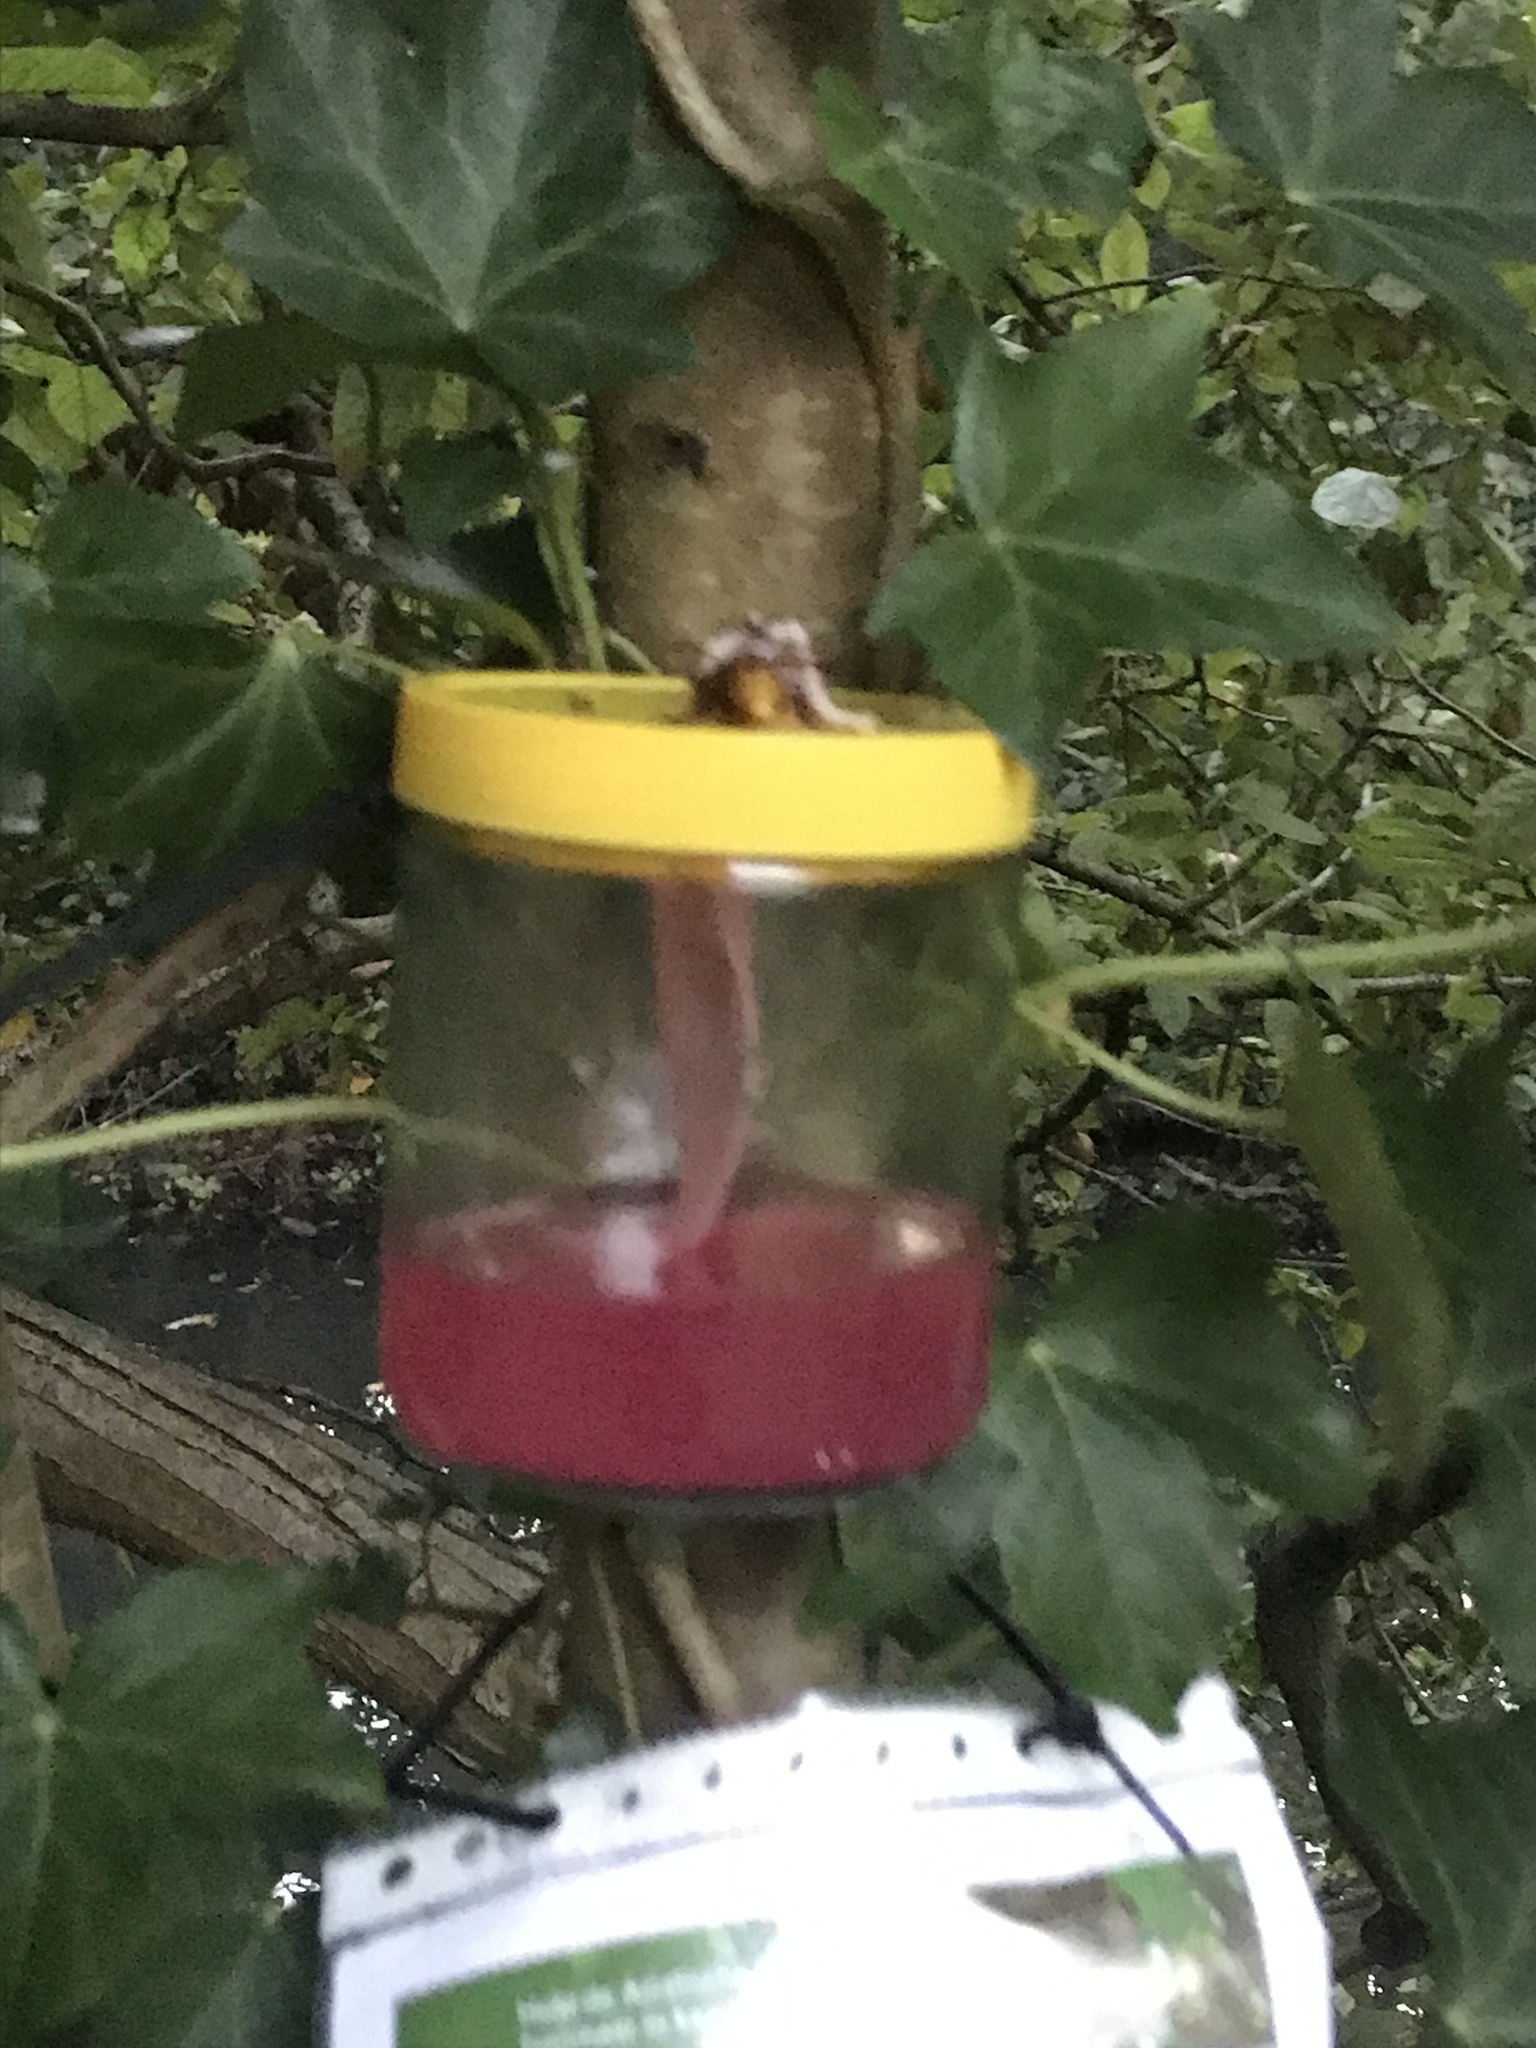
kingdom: Animalia
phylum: Arthropoda
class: Insecta
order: Hymenoptera
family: Vespidae
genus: Vespa
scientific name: Vespa crabro
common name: Hornet
